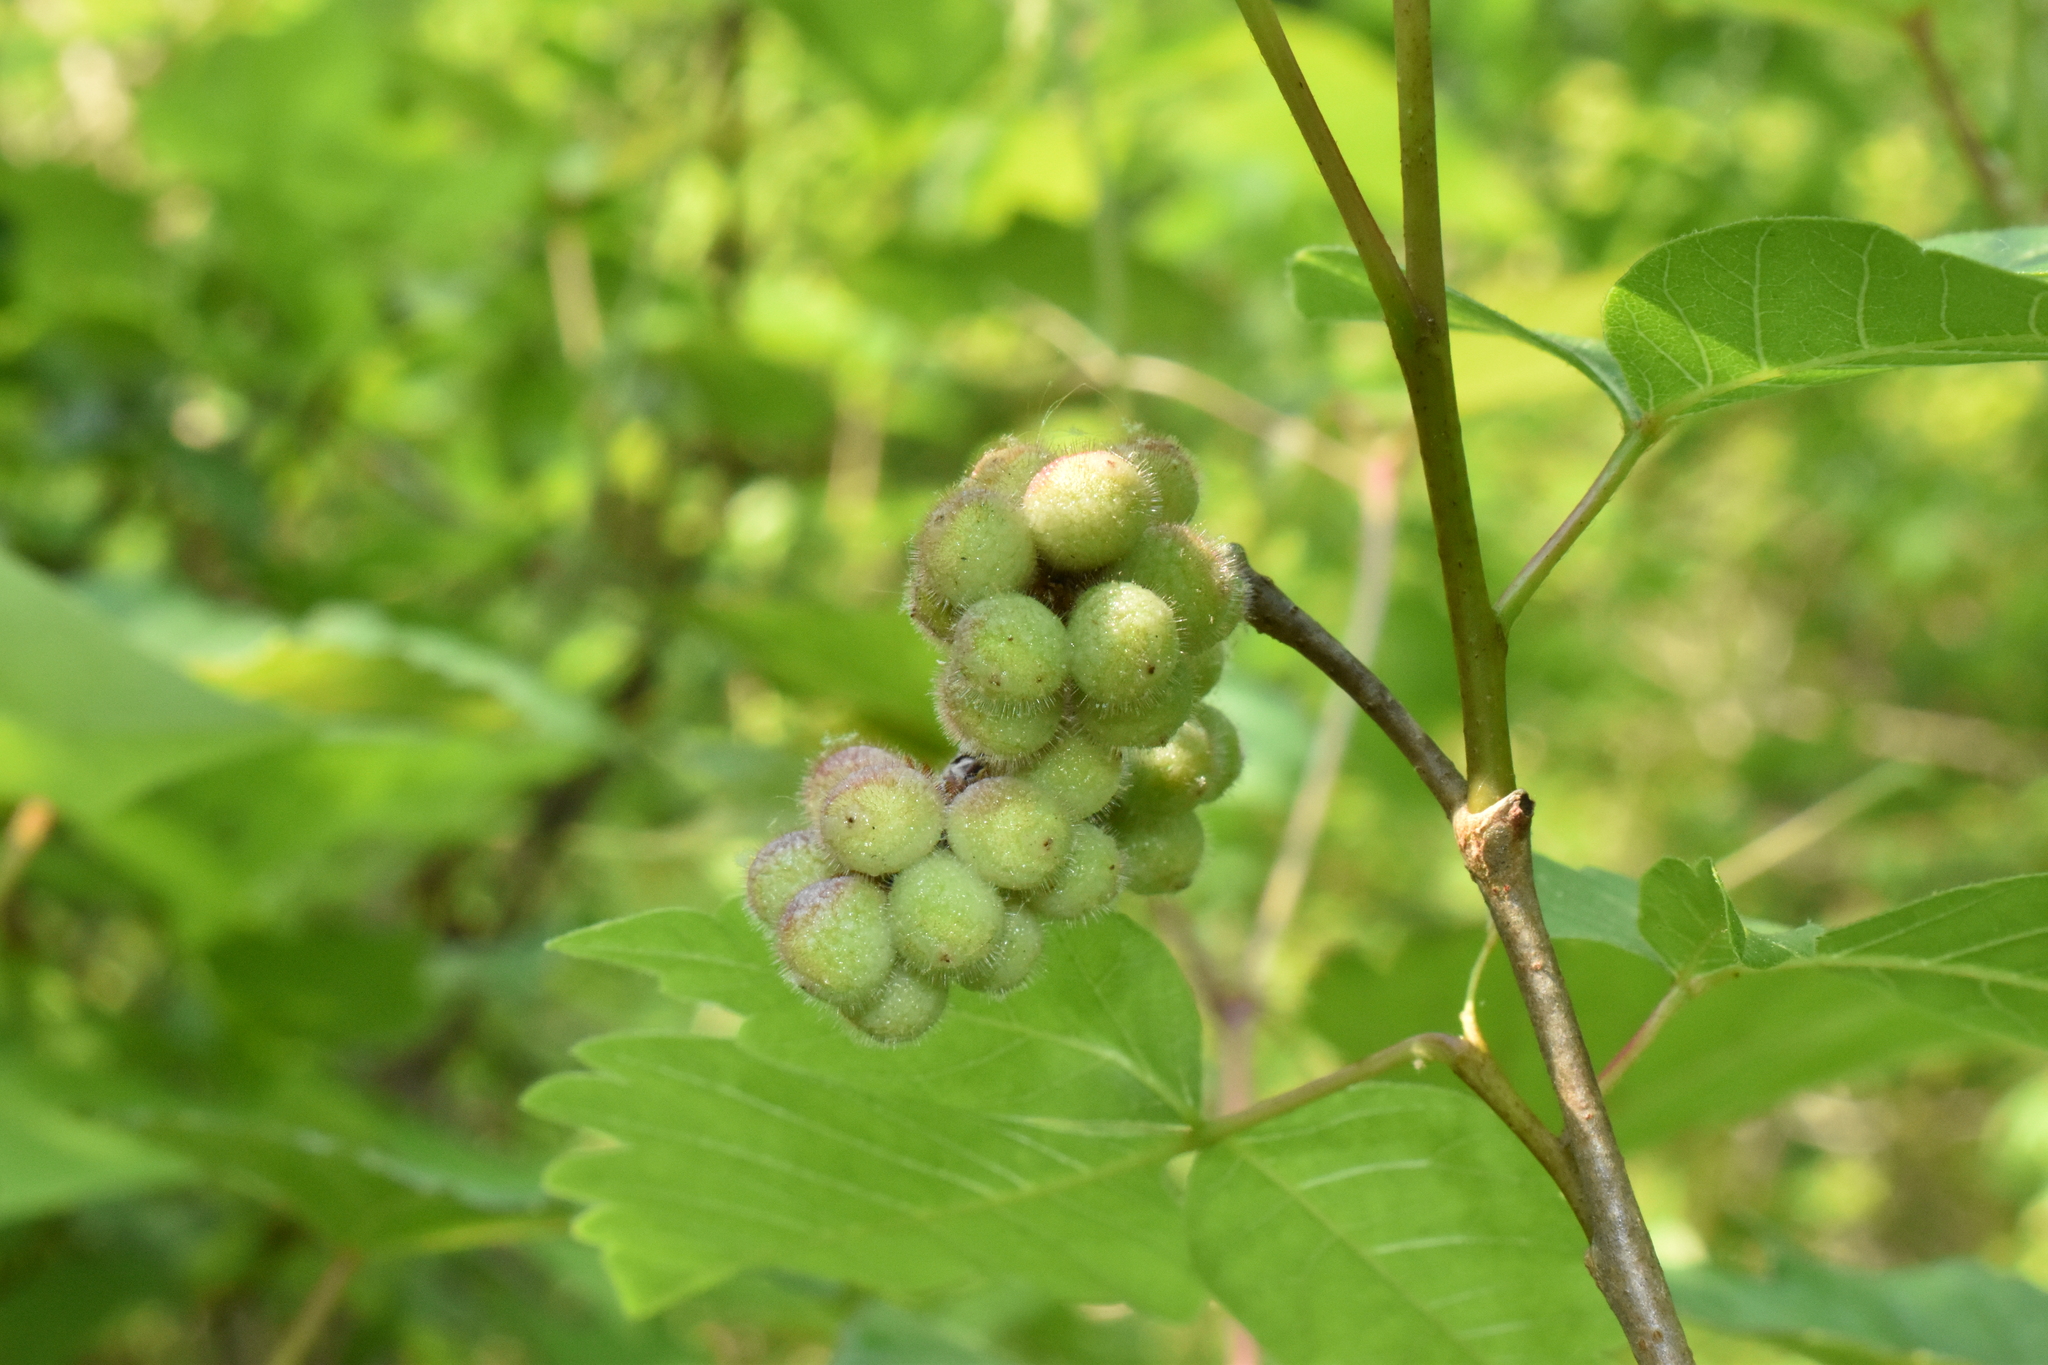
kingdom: Plantae
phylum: Tracheophyta
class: Magnoliopsida
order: Sapindales
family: Anacardiaceae
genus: Rhus
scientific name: Rhus aromatica
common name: Aromatic sumac
